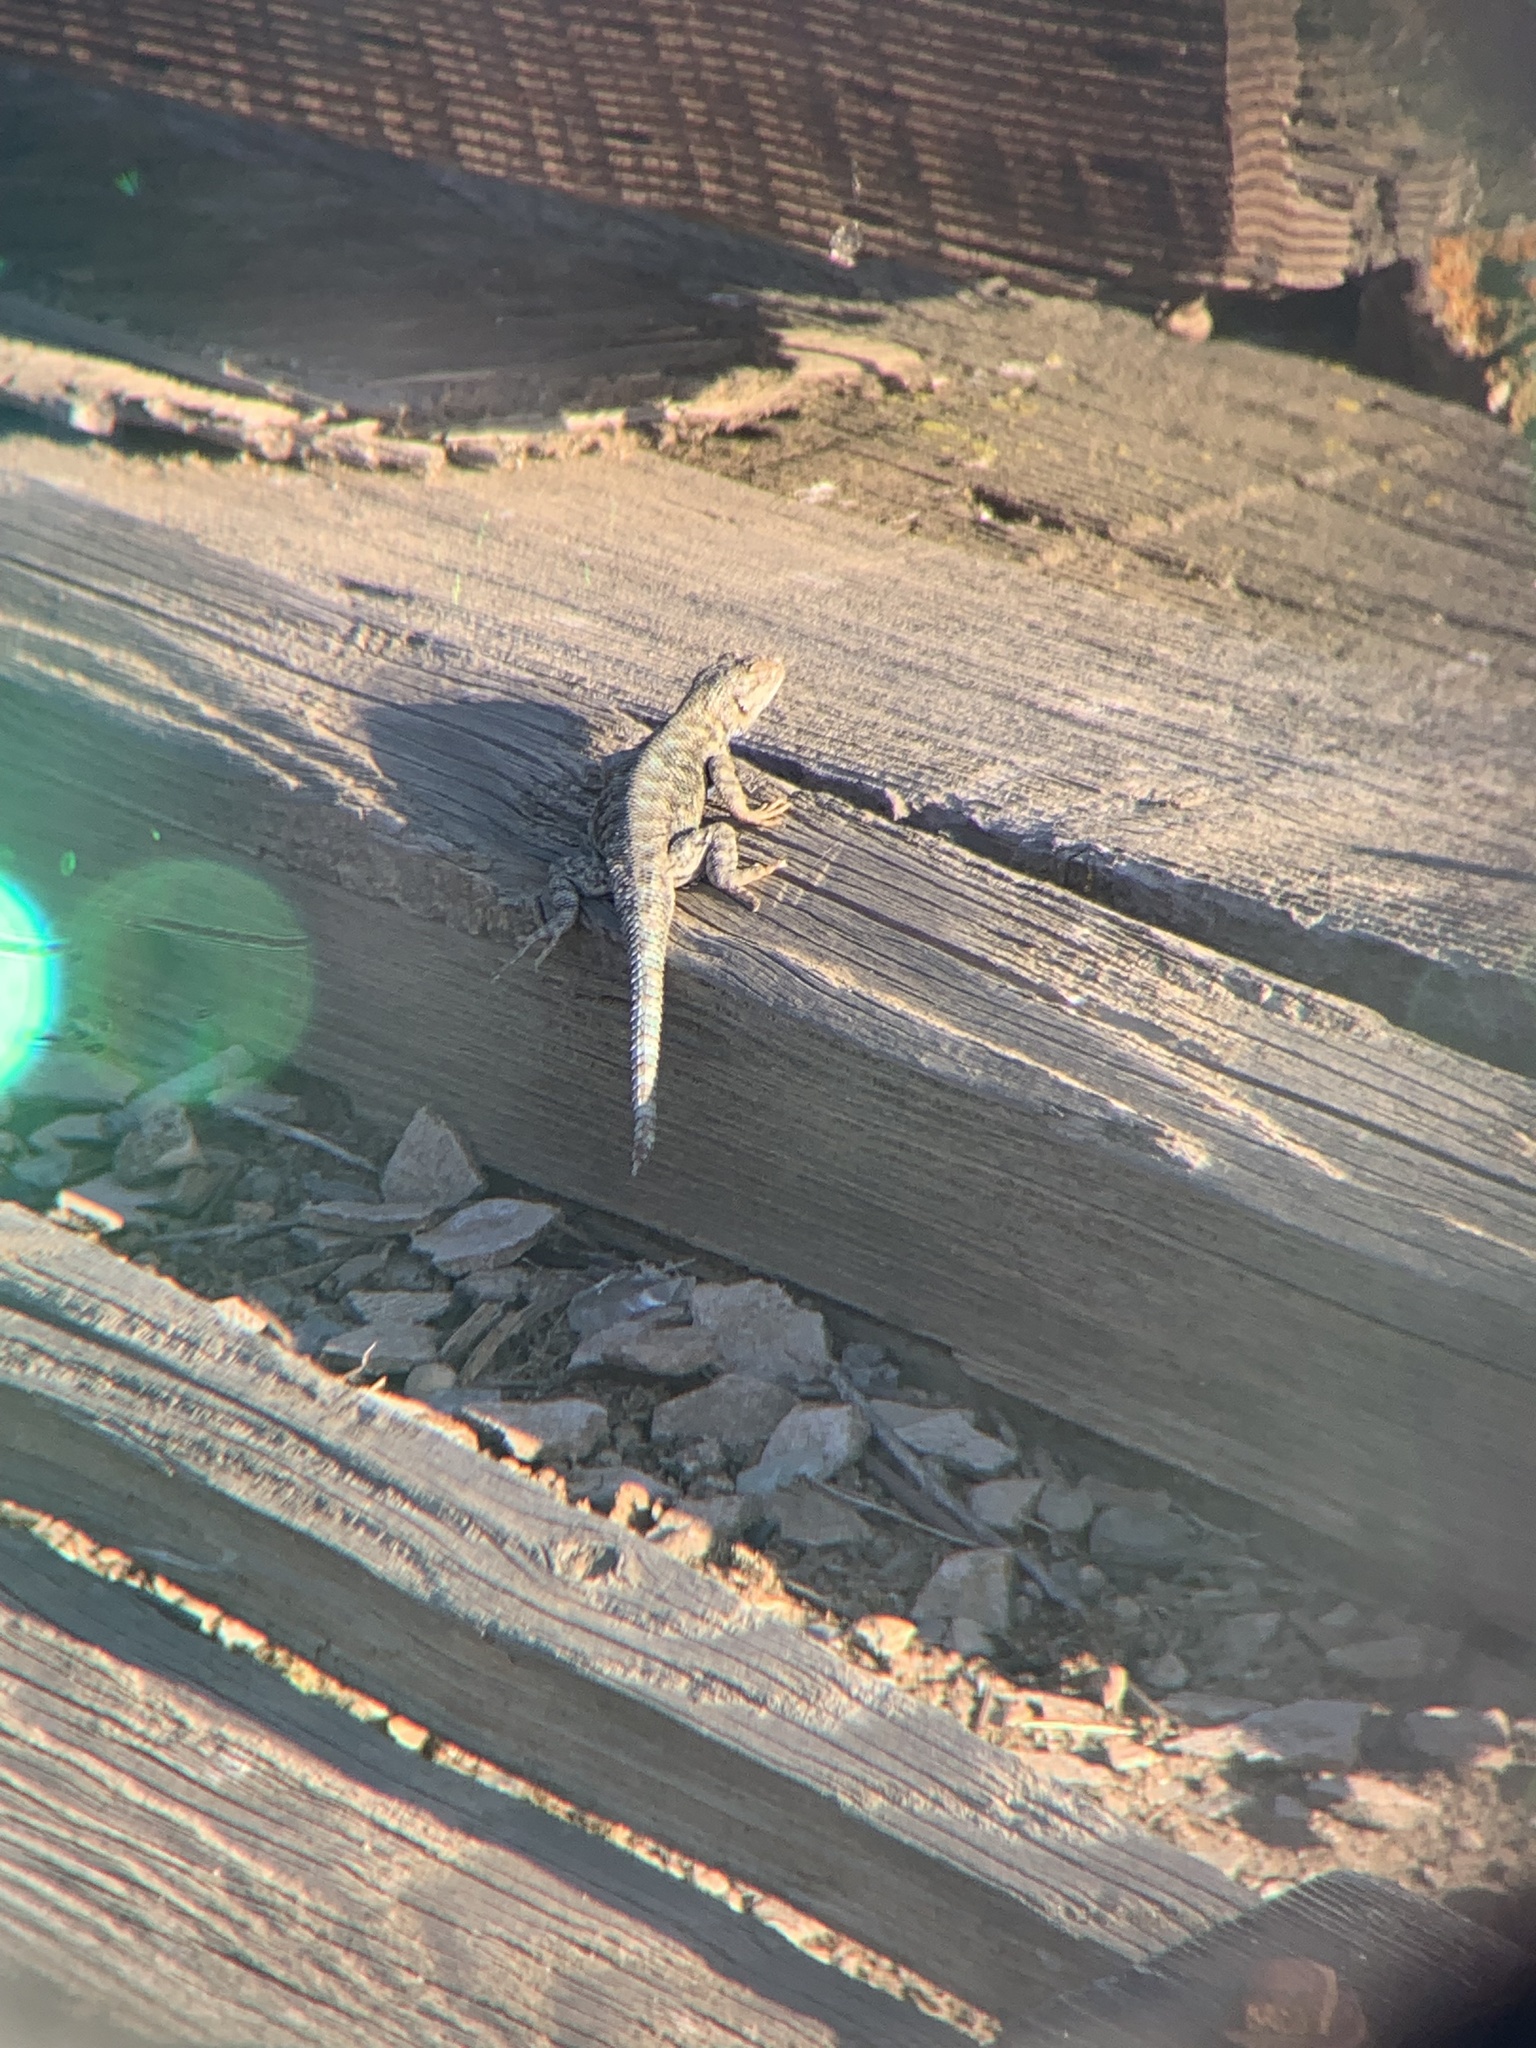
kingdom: Animalia
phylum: Chordata
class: Squamata
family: Phrynosomatidae
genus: Sceloporus
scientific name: Sceloporus occidentalis
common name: Western fence lizard
